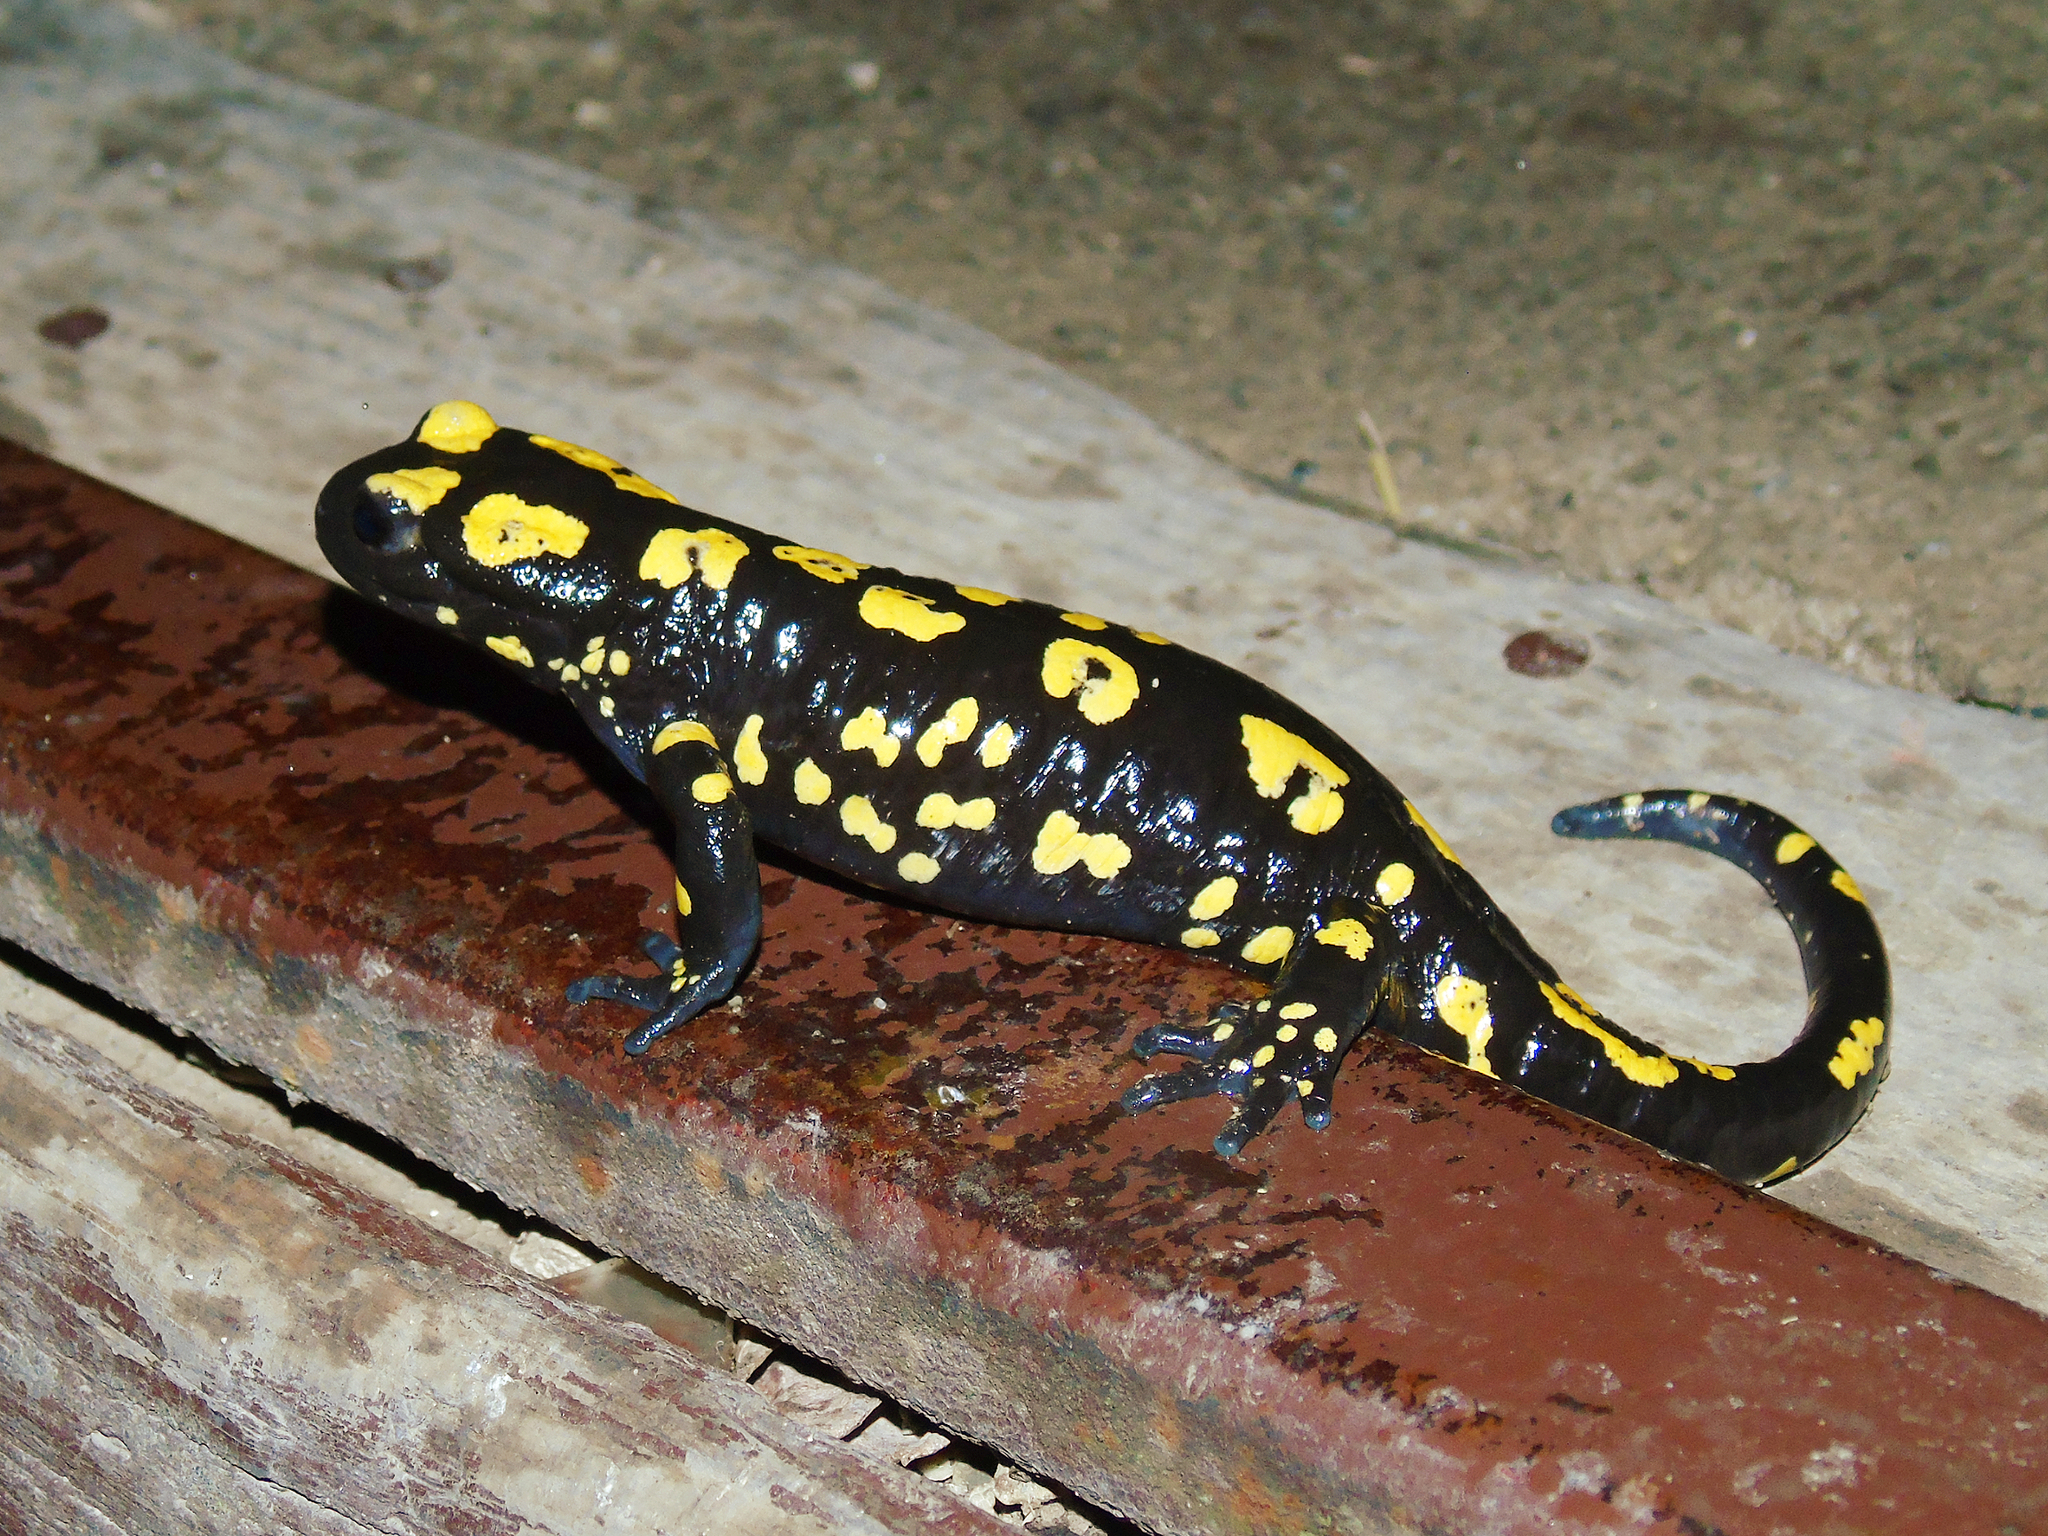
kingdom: Animalia
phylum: Chordata
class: Amphibia
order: Caudata
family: Salamandridae
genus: Salamandra
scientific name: Salamandra infraimmaculata
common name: Near-eastern fire salamander
